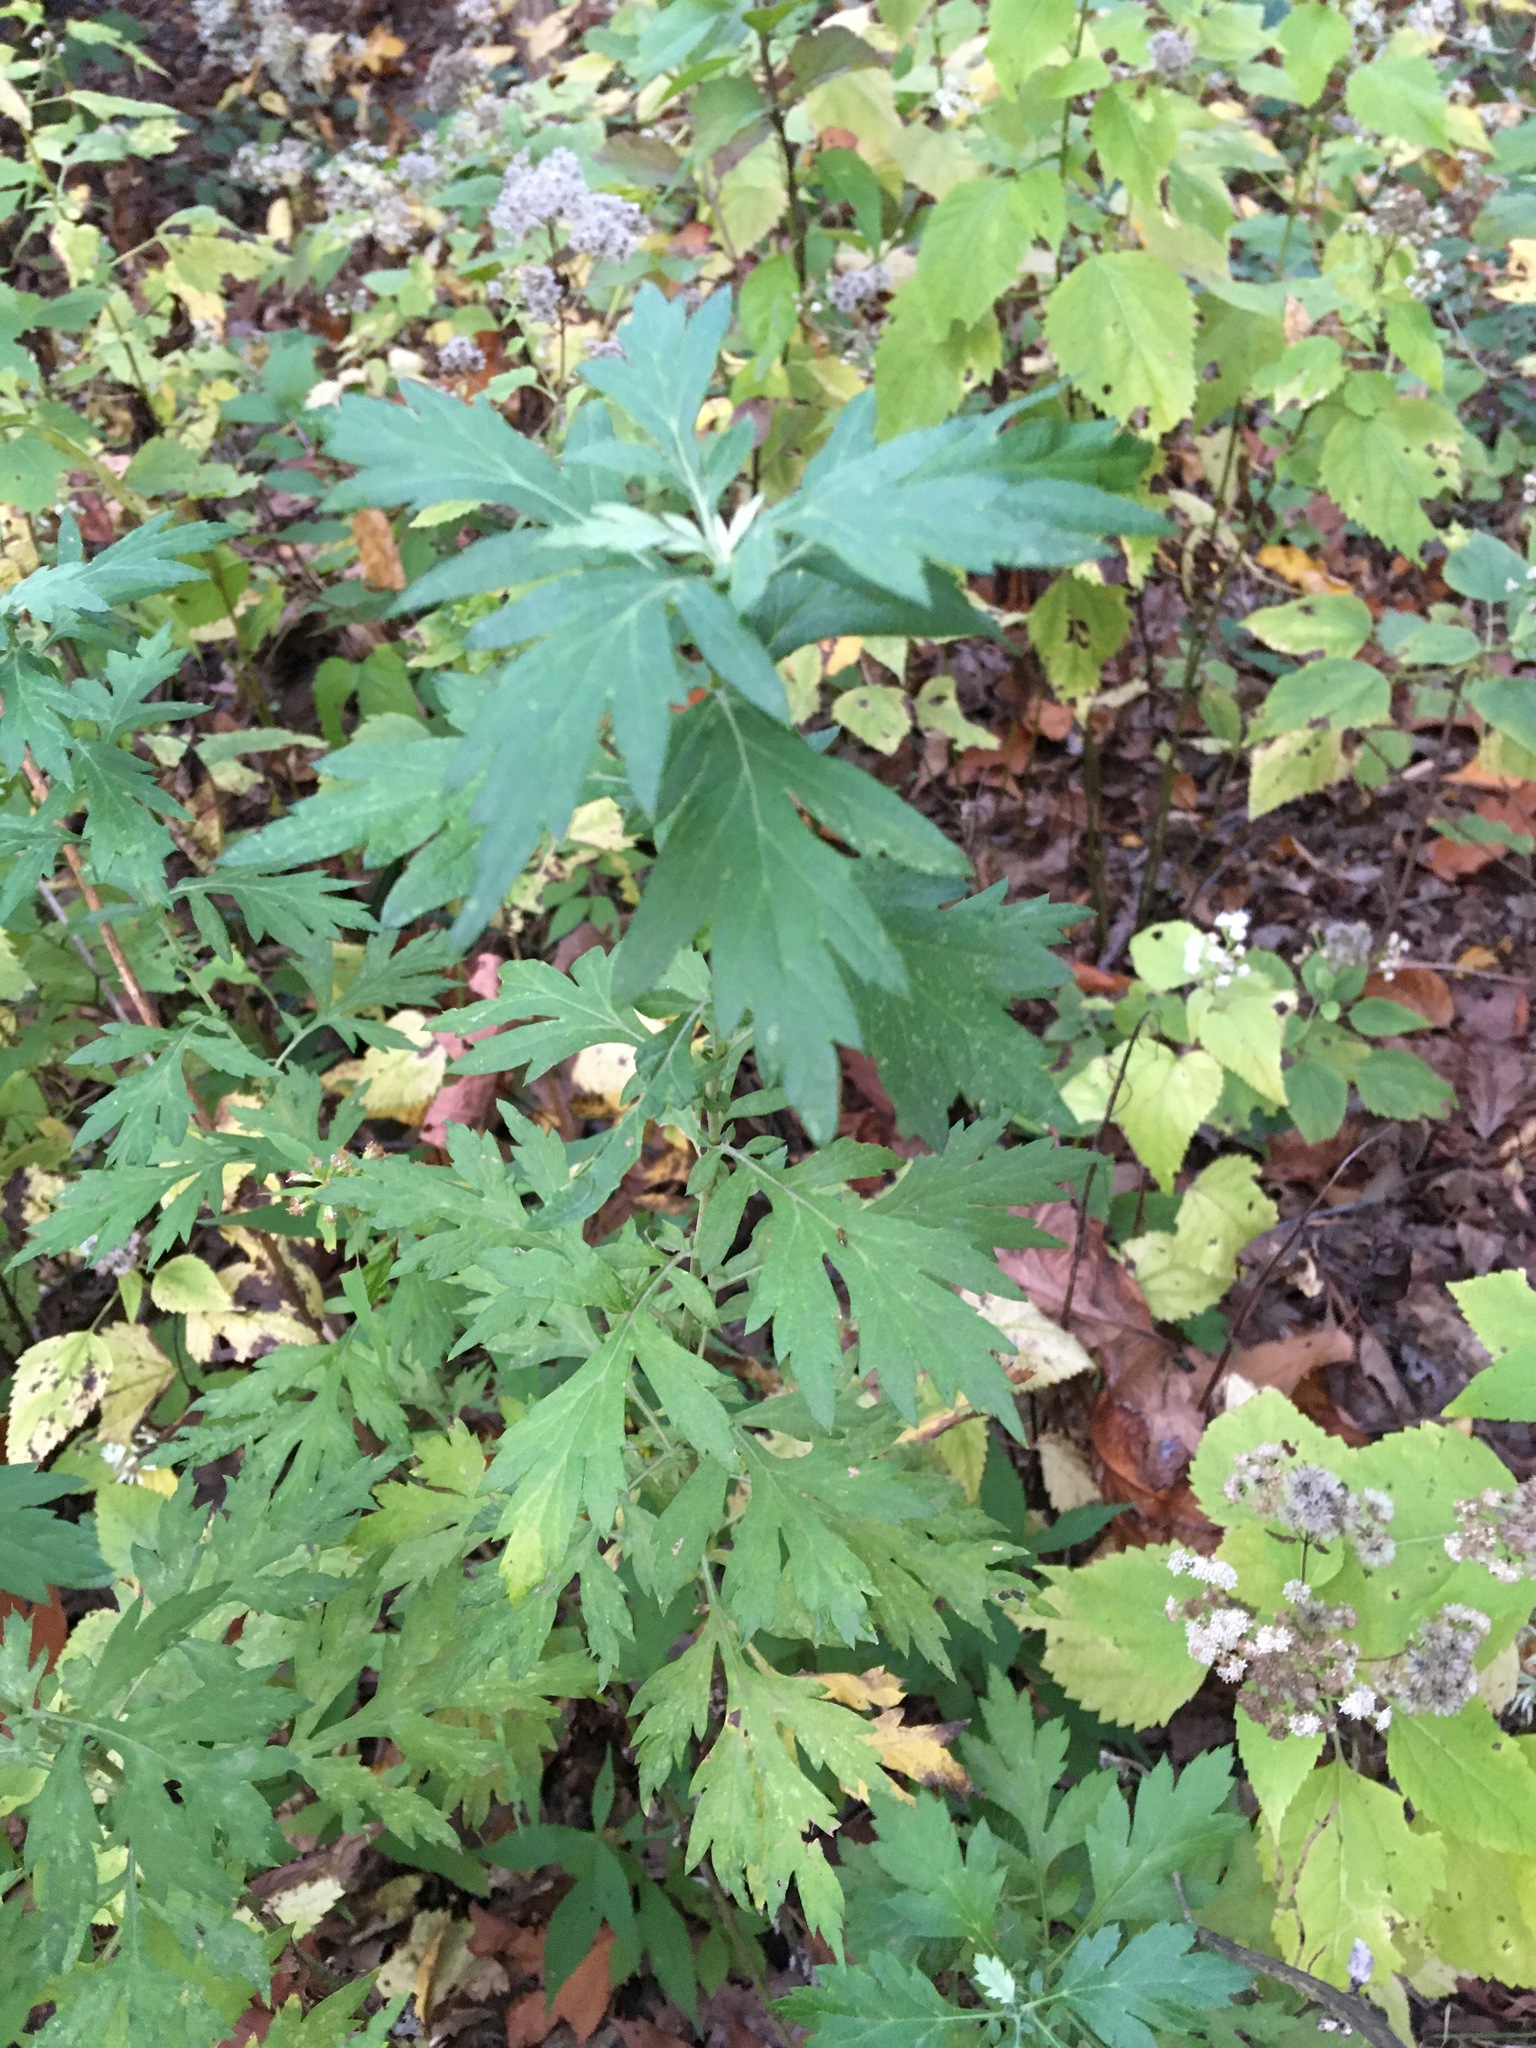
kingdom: Plantae
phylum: Tracheophyta
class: Magnoliopsida
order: Asterales
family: Asteraceae
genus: Artemisia
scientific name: Artemisia vulgaris
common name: Mugwort
